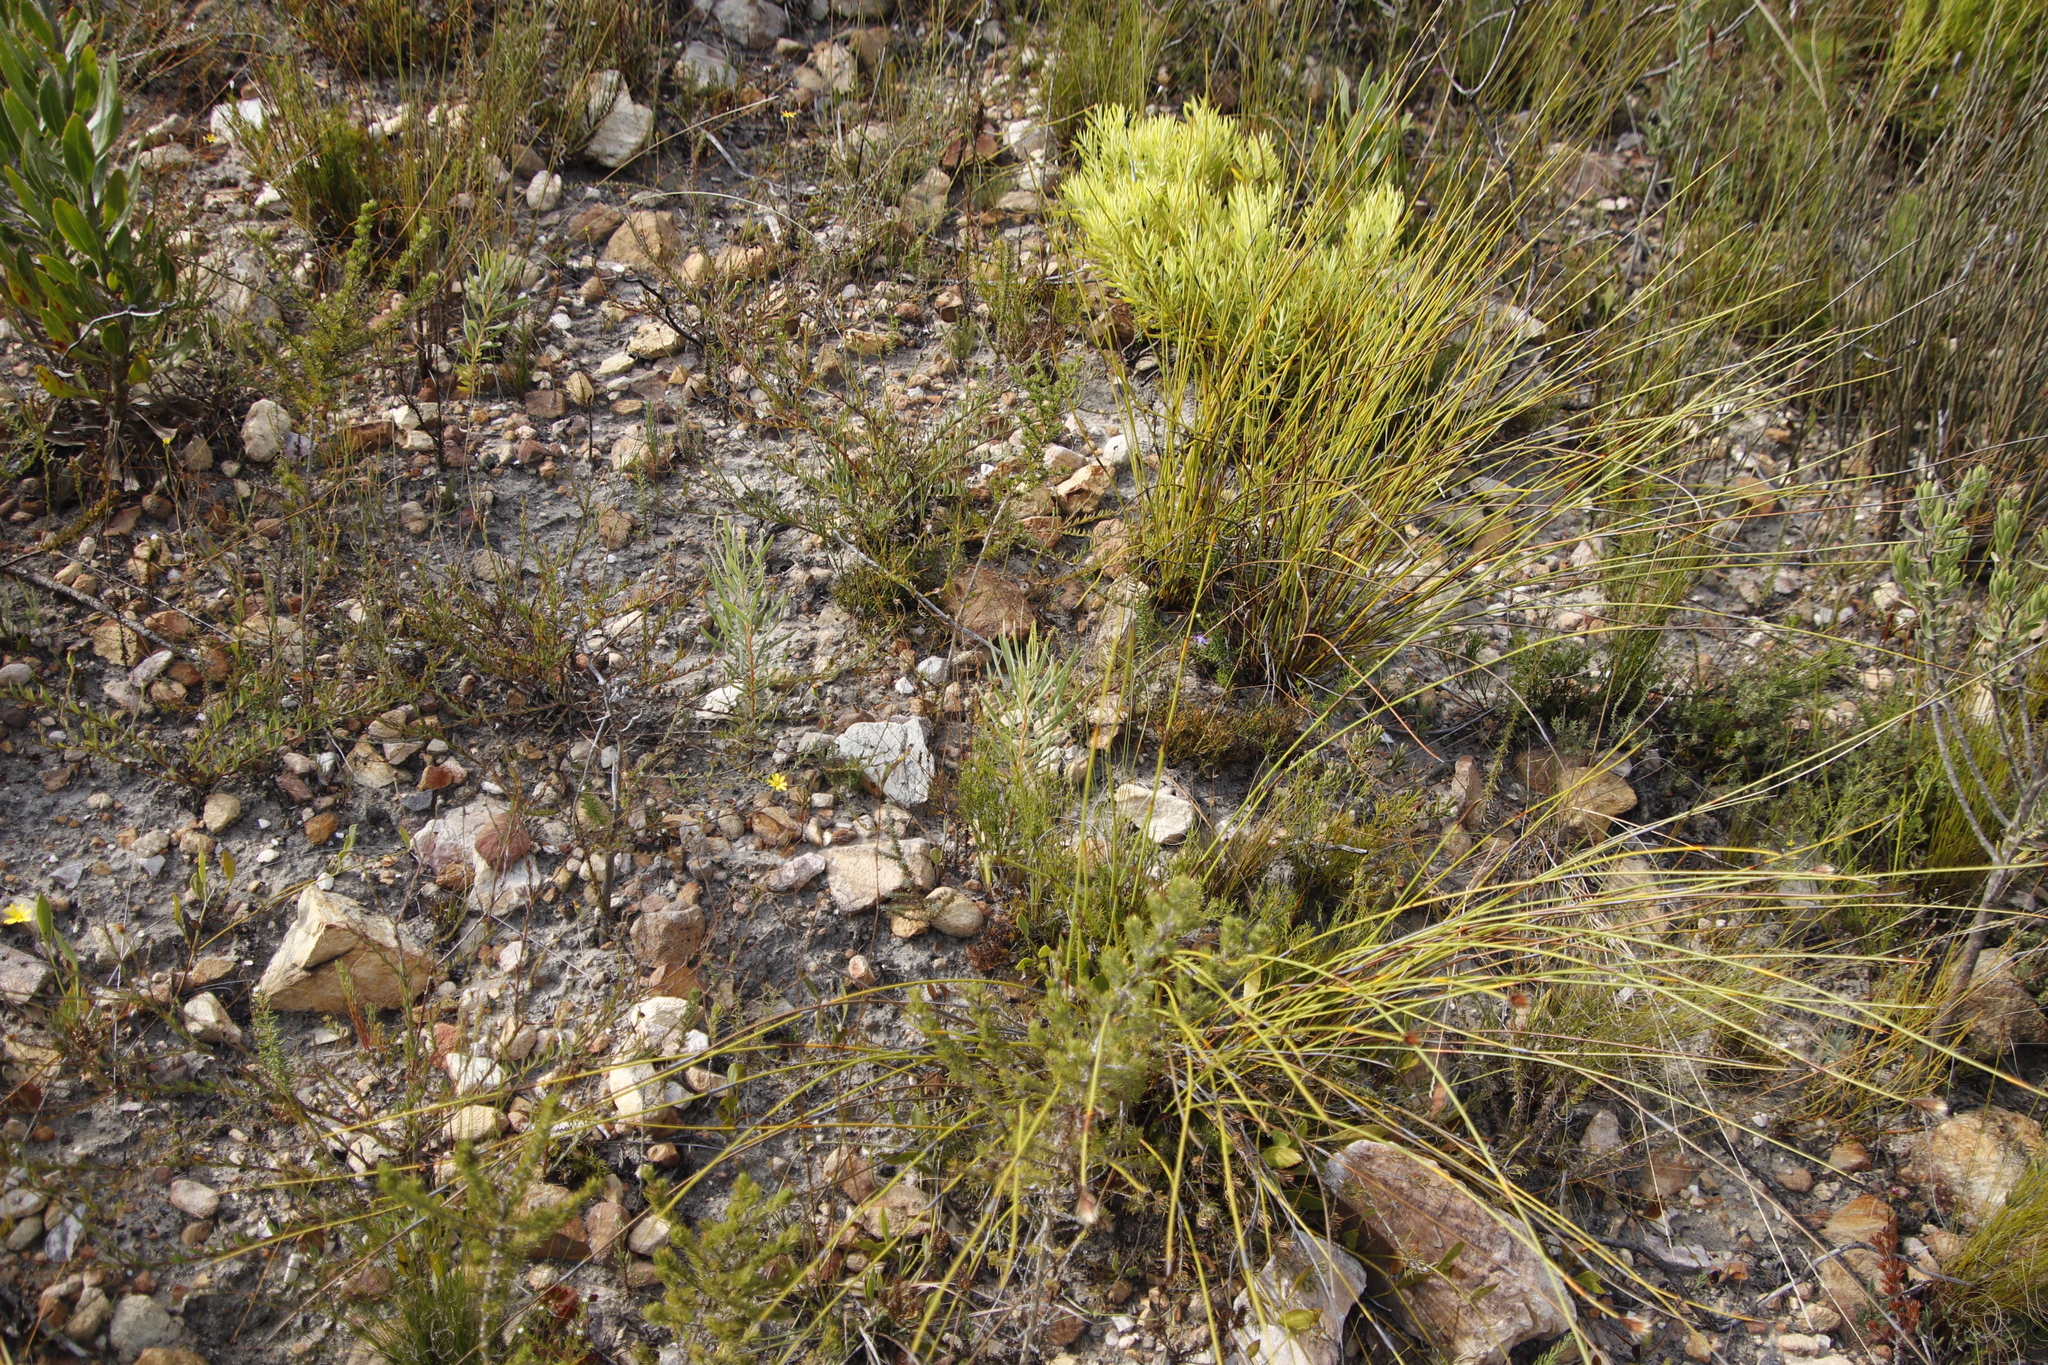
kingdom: Plantae
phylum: Tracheophyta
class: Magnoliopsida
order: Proteales
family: Proteaceae
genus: Protea
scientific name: Protea repens
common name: Sugarbush
